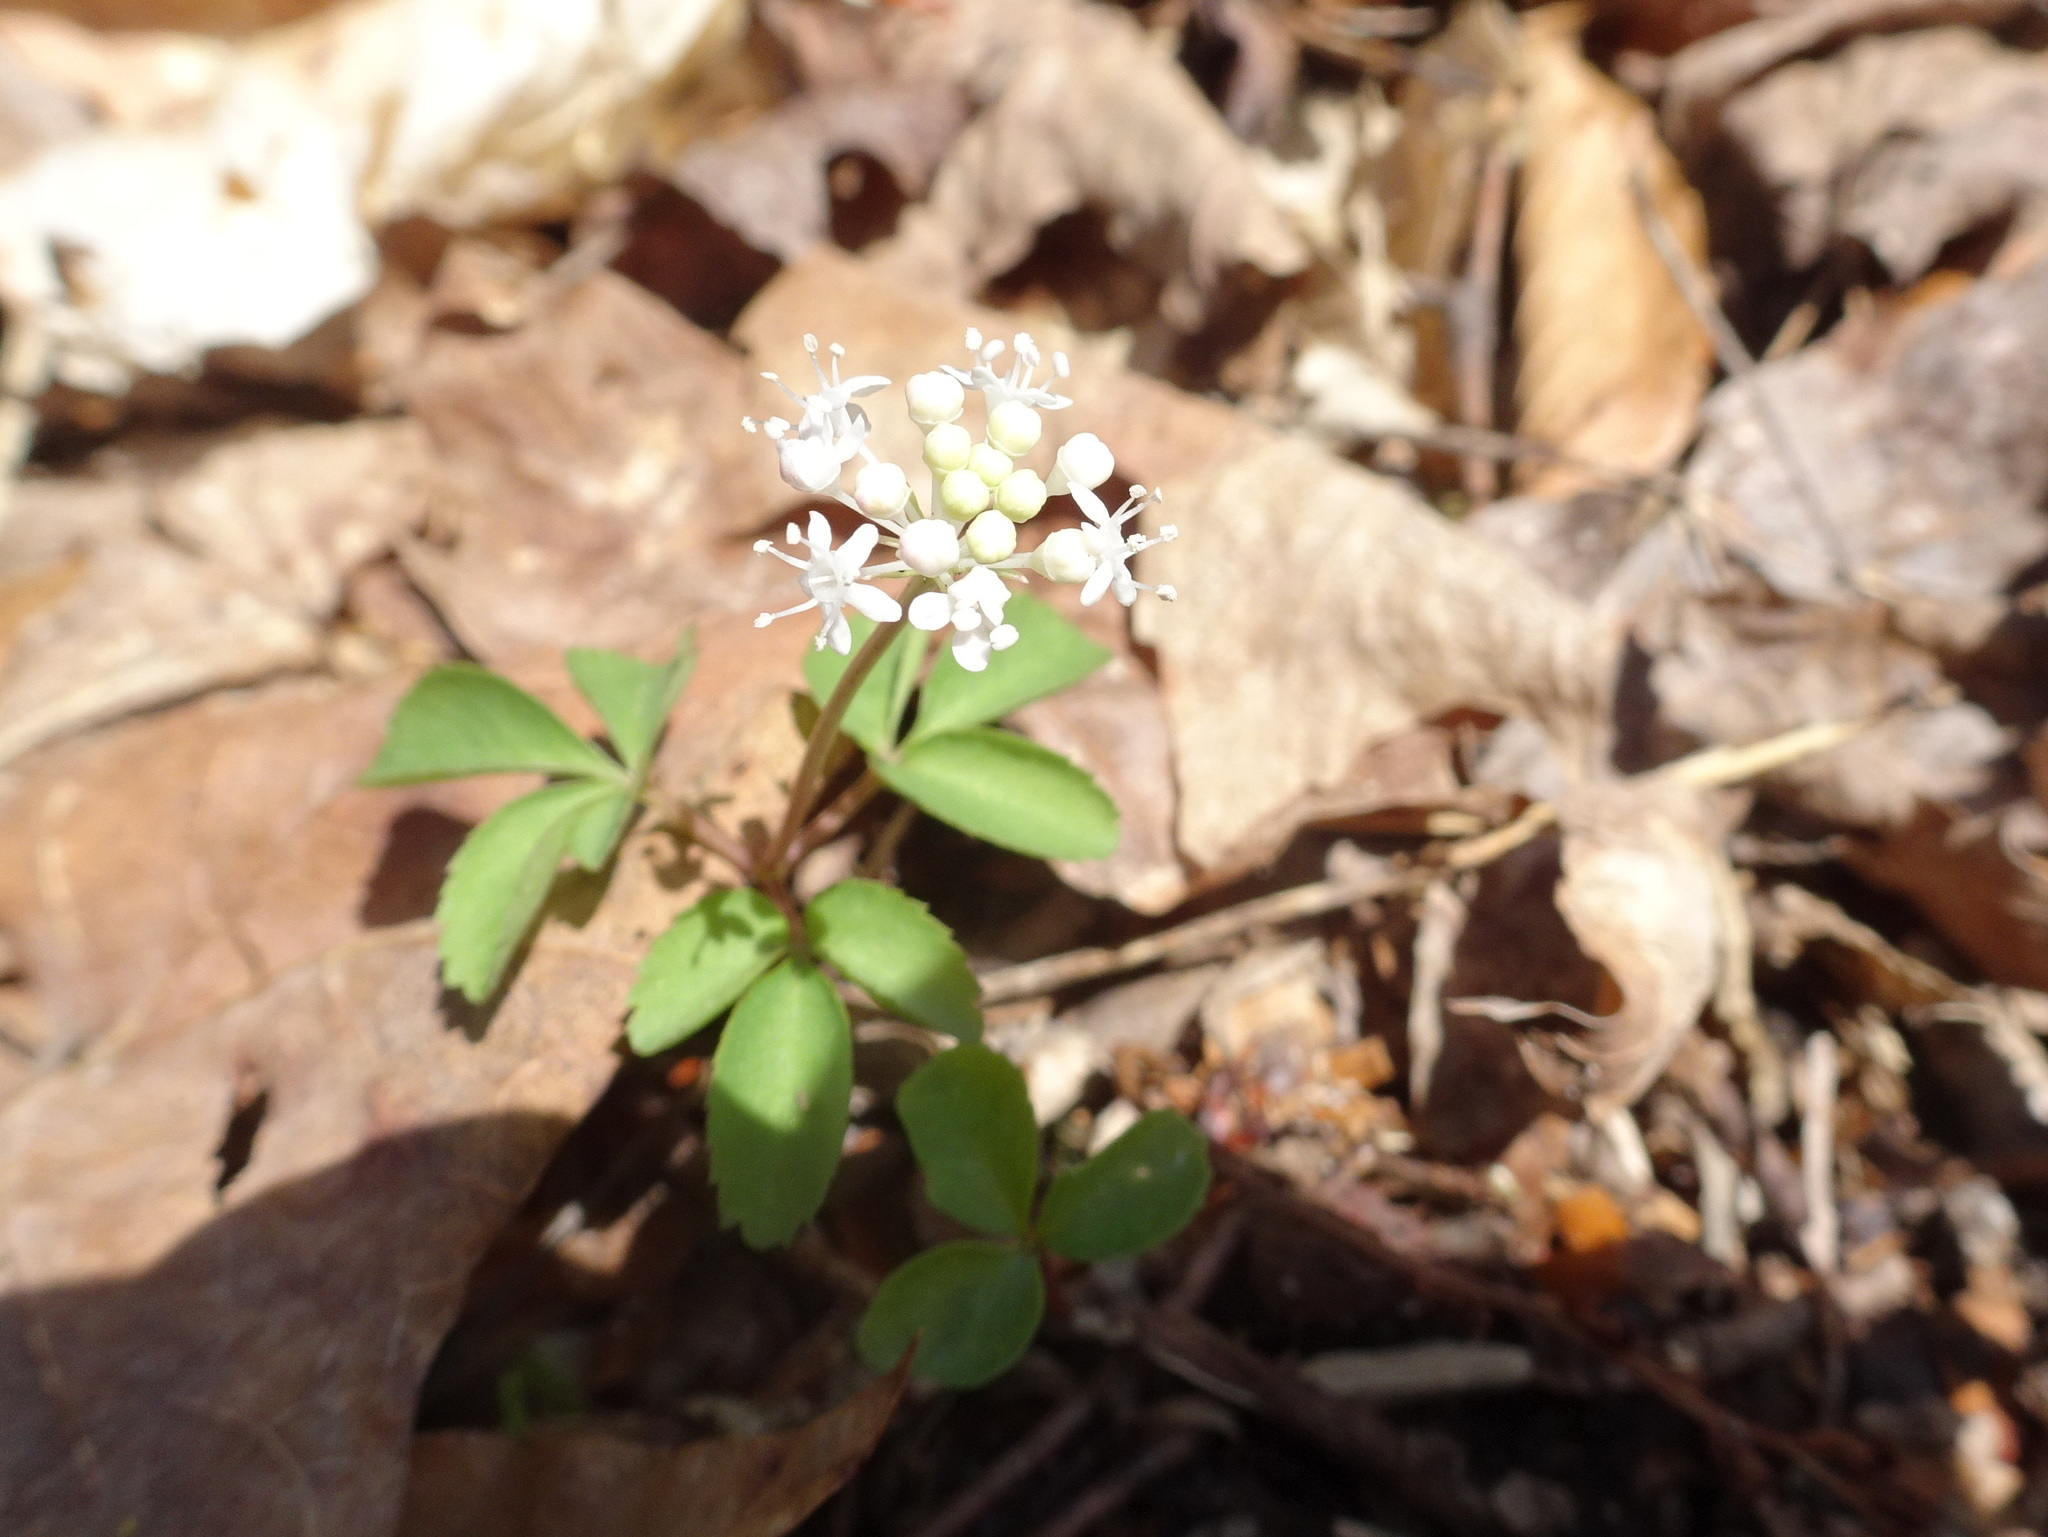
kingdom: Plantae
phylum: Tracheophyta
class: Magnoliopsida
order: Apiales
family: Araliaceae
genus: Panax
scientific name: Panax trifolius
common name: Dwarf ginseng
